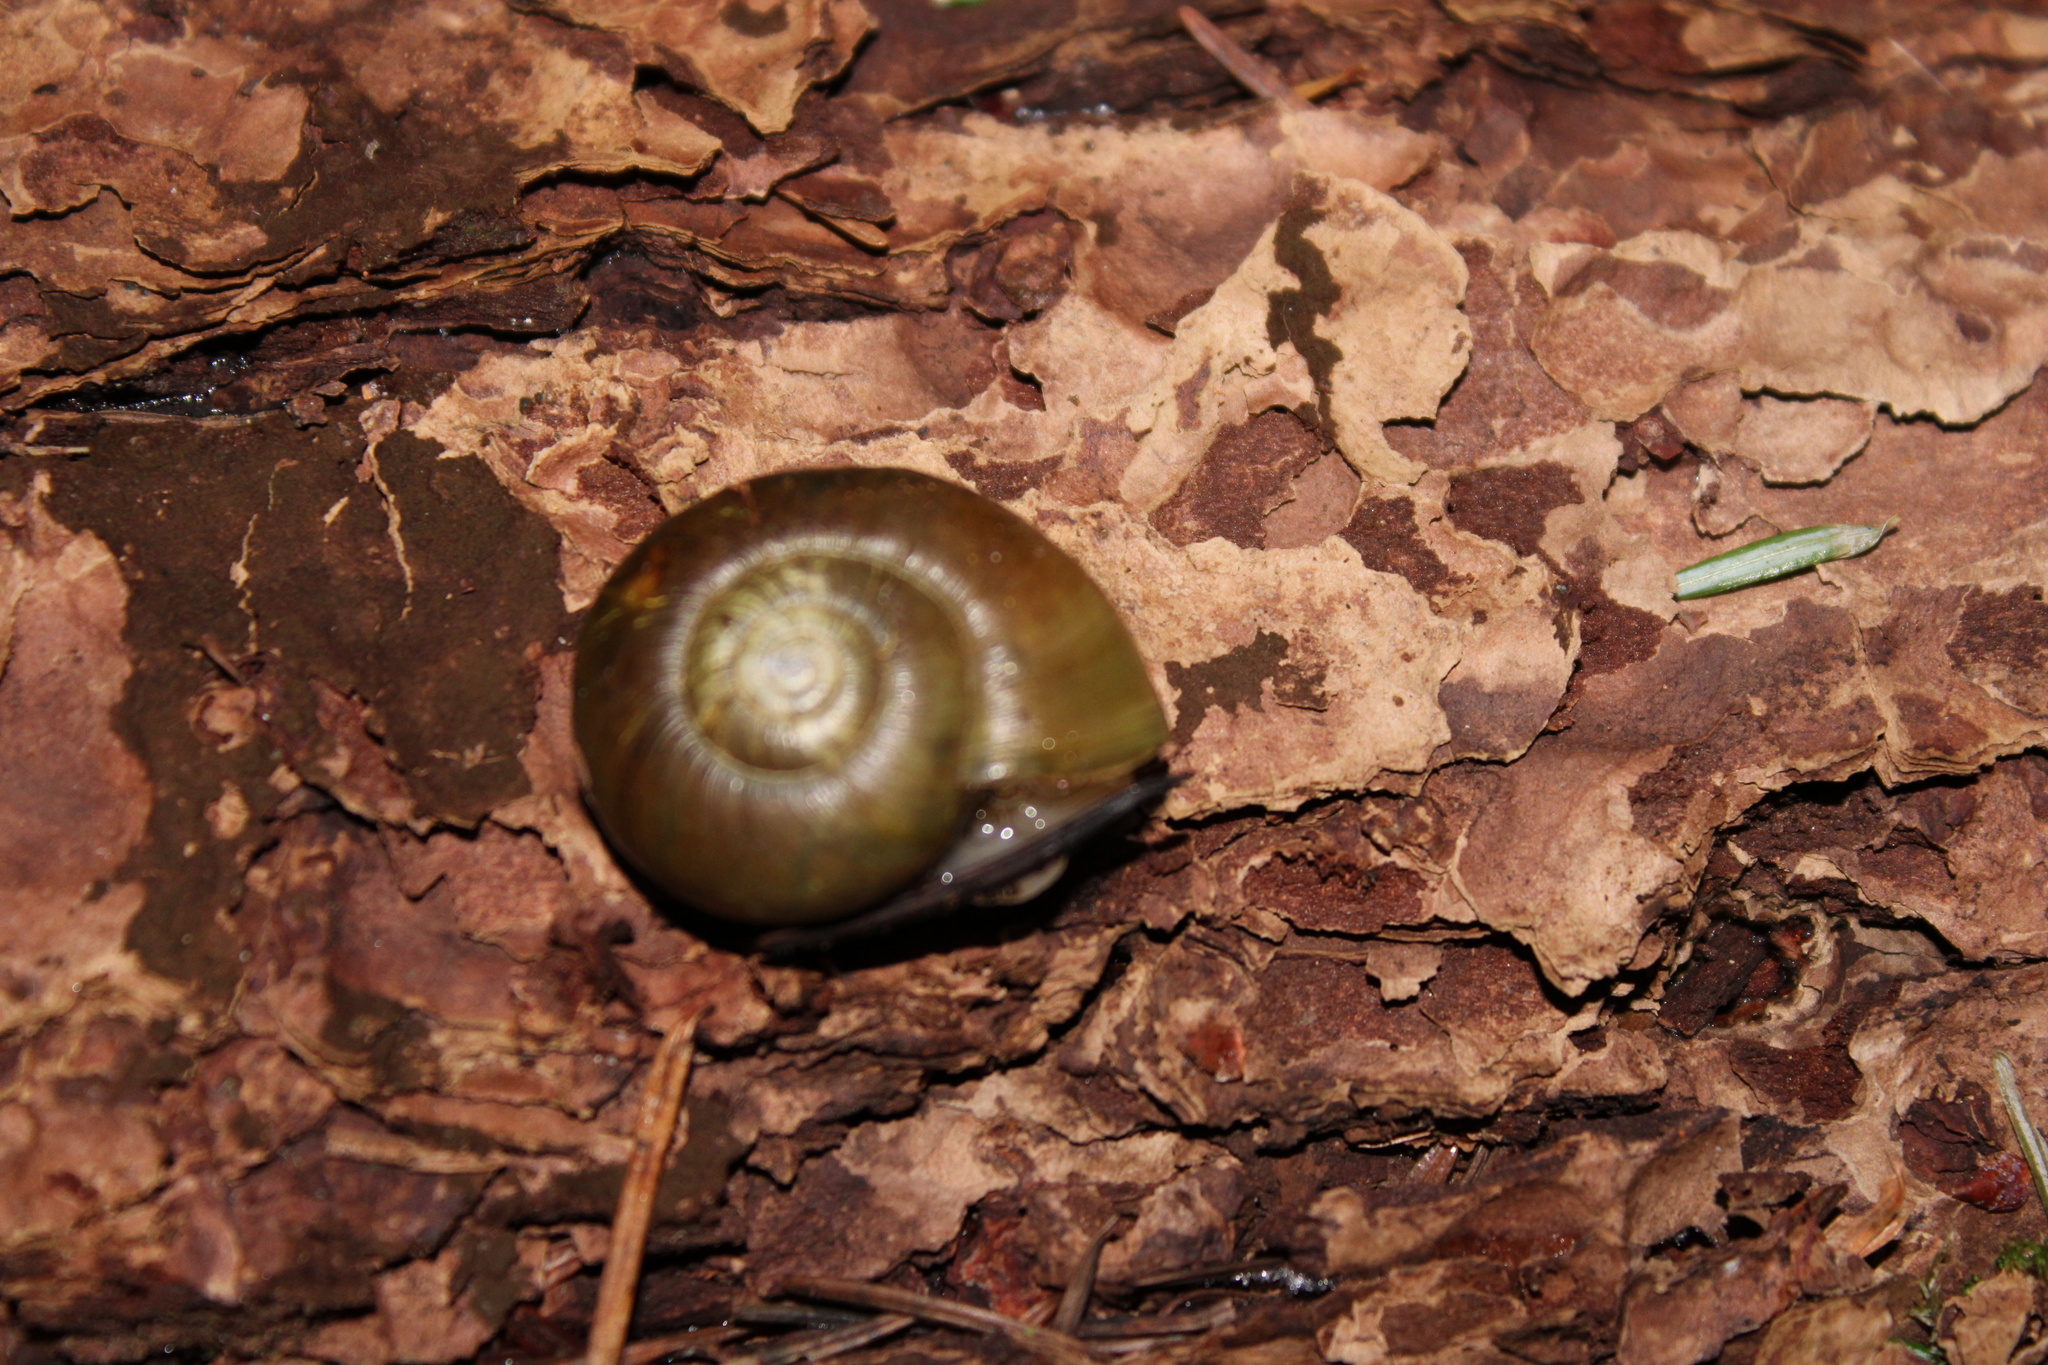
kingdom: Animalia
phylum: Mollusca
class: Gastropoda
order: Stylommatophora
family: Haplotrematidae
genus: Haplotrema
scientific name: Haplotrema vancouverense
